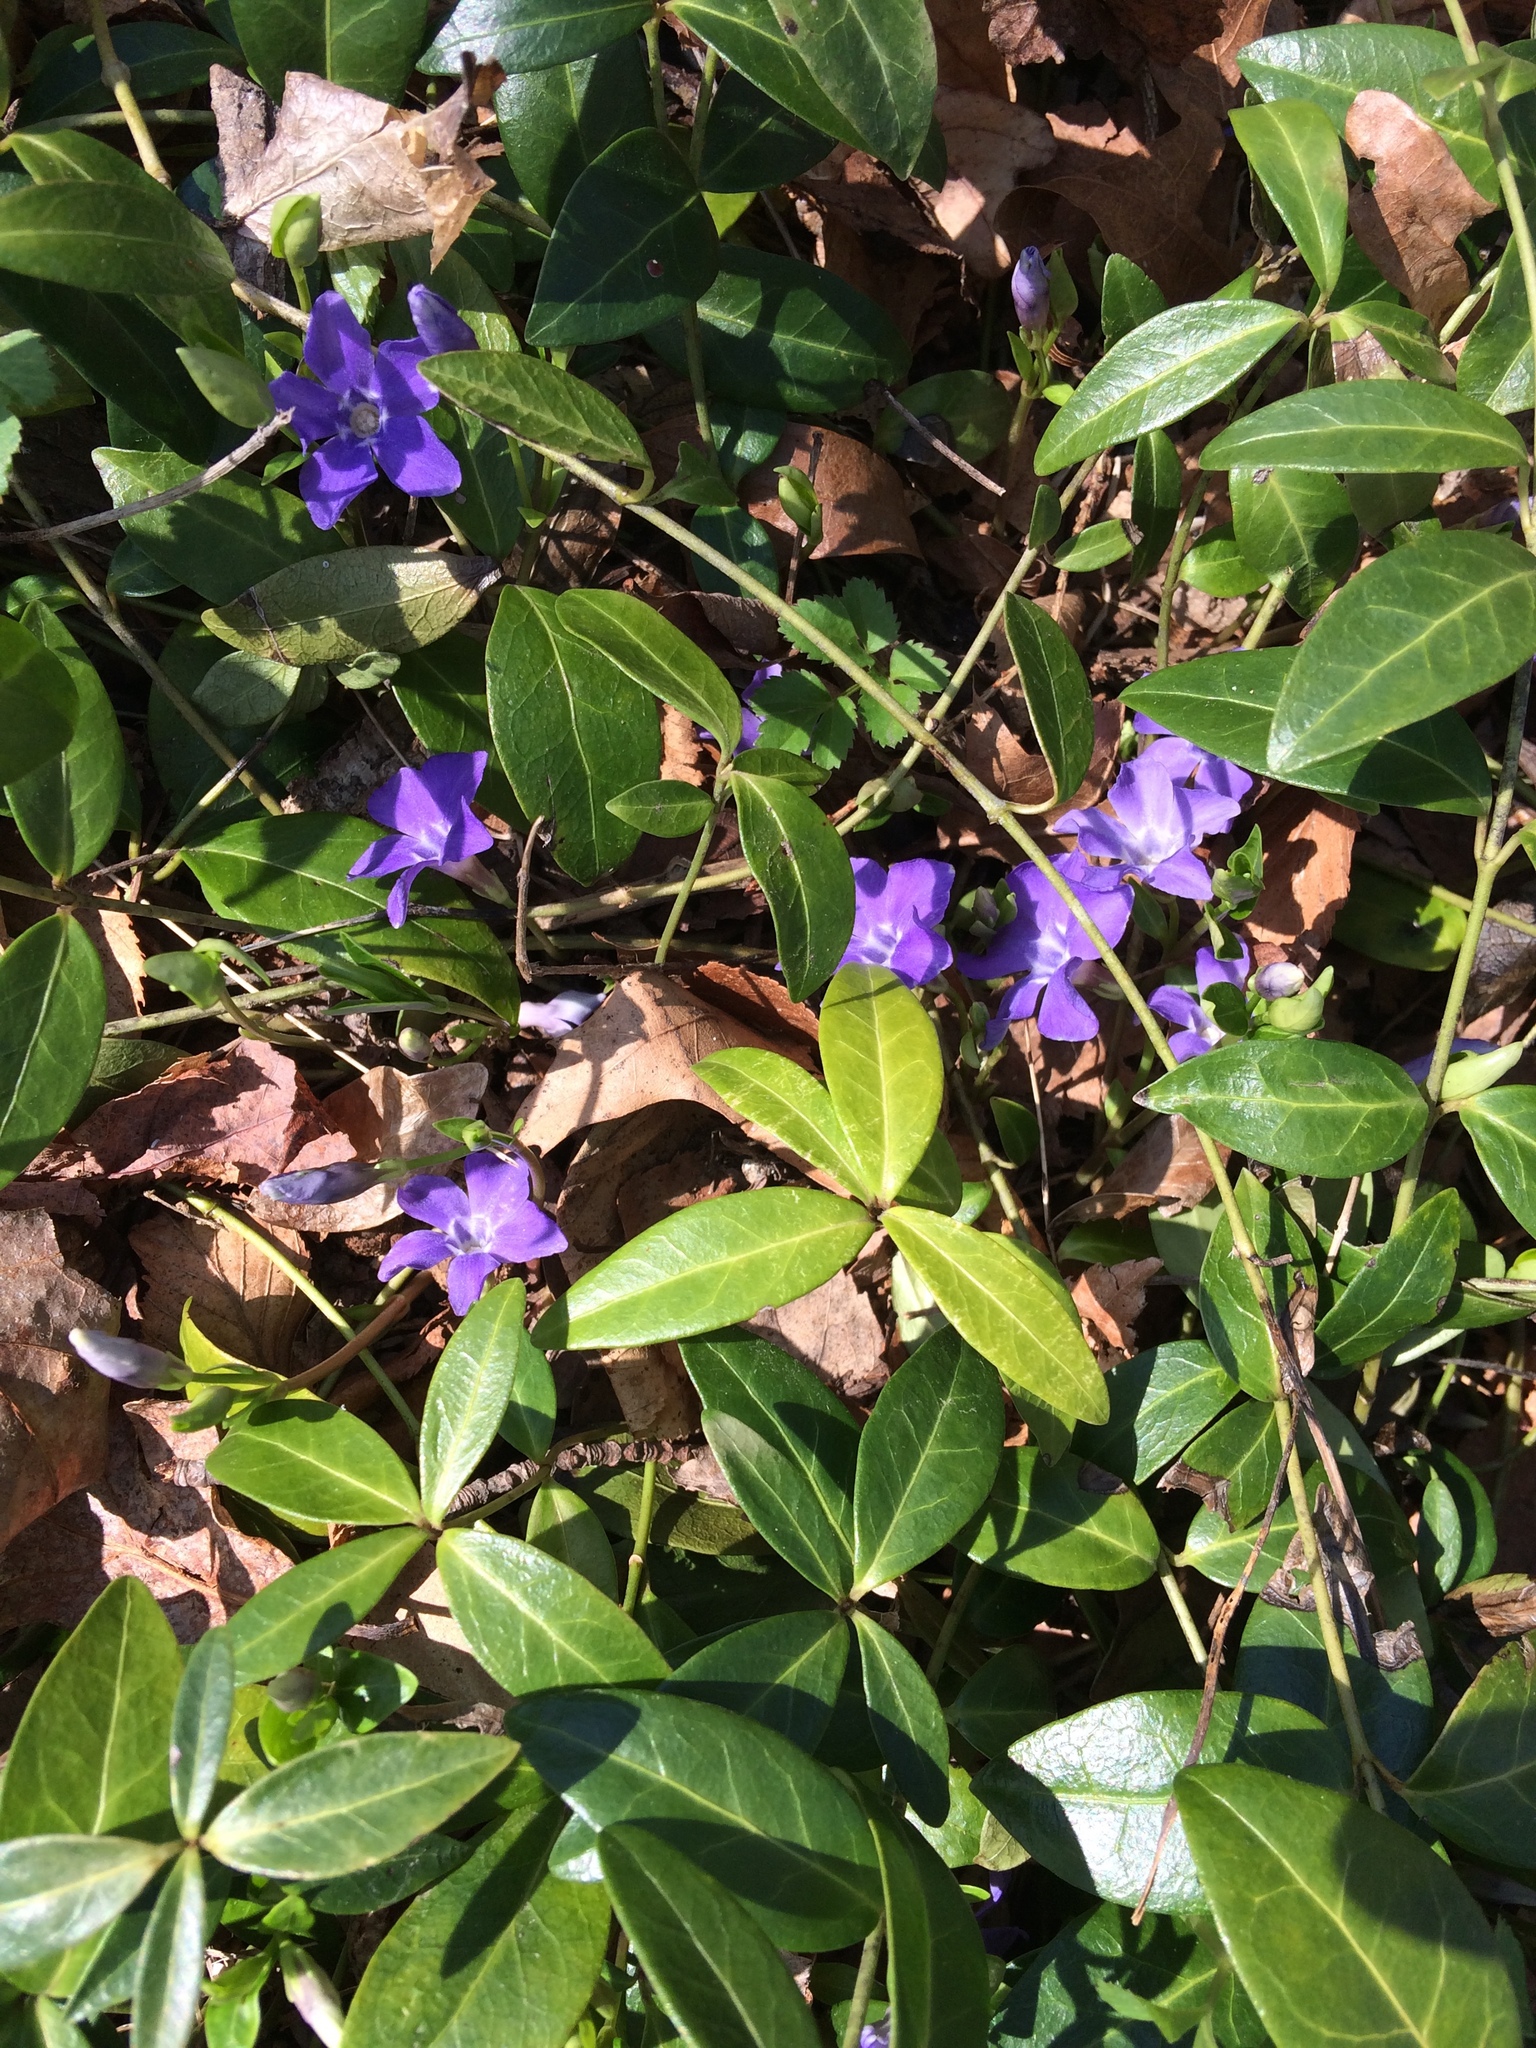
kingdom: Plantae
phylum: Tracheophyta
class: Magnoliopsida
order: Gentianales
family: Apocynaceae
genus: Vinca
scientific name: Vinca minor
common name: Lesser periwinkle
